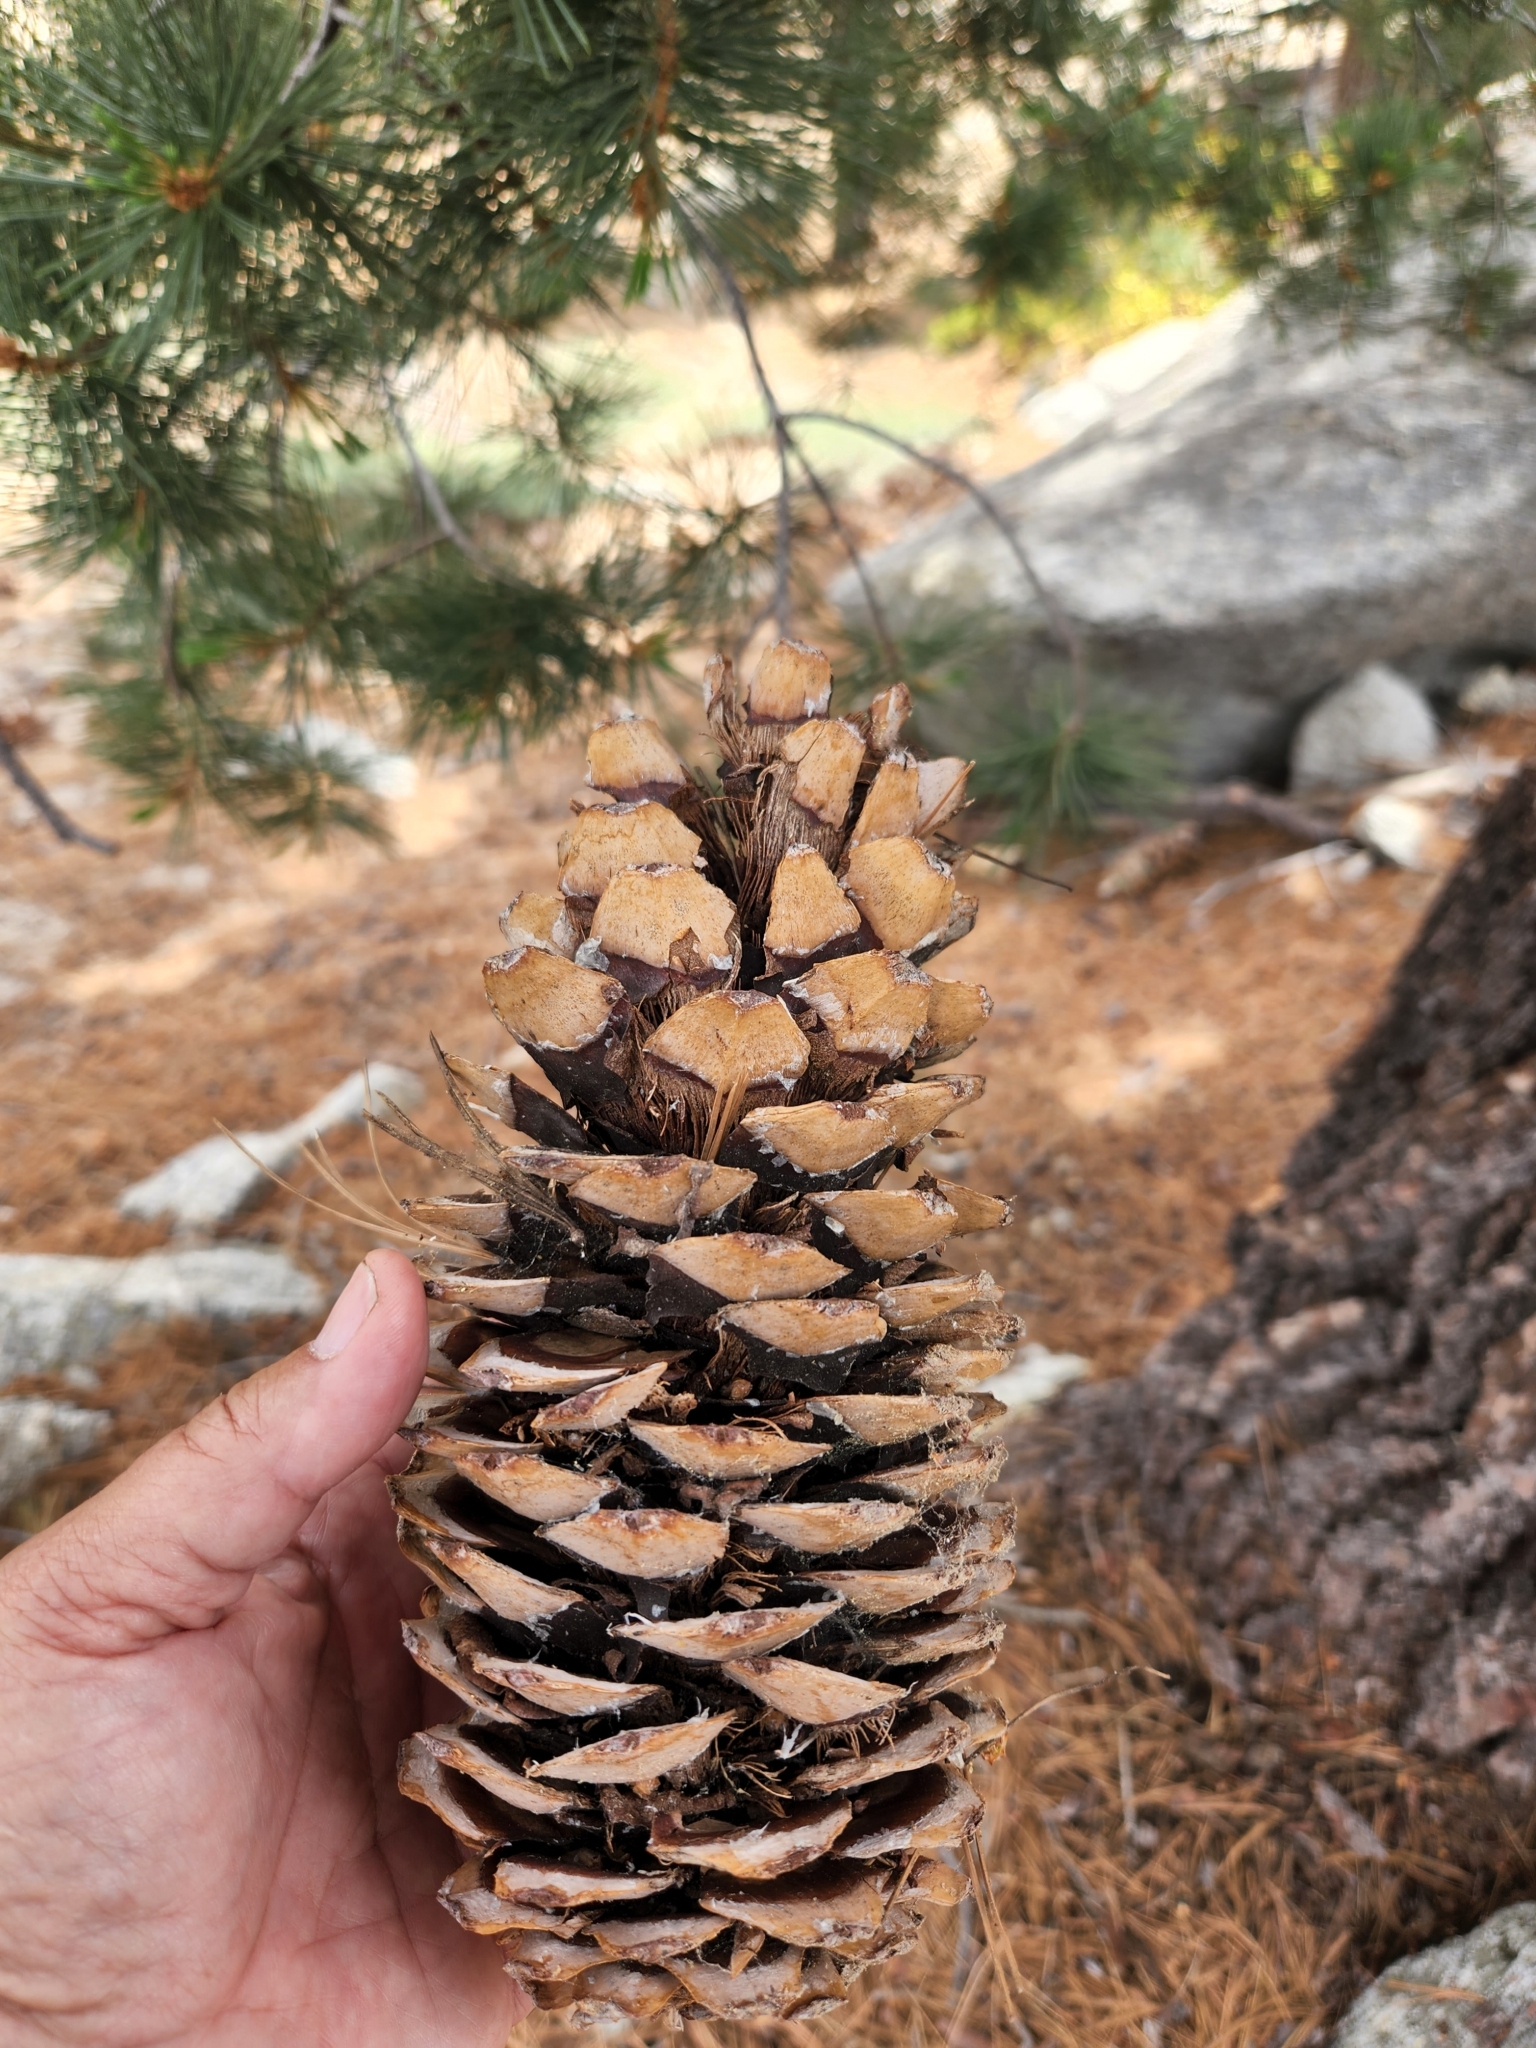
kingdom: Plantae
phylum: Tracheophyta
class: Pinopsida
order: Pinales
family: Pinaceae
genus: Pinus
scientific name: Pinus lambertiana
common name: Sugar pine
